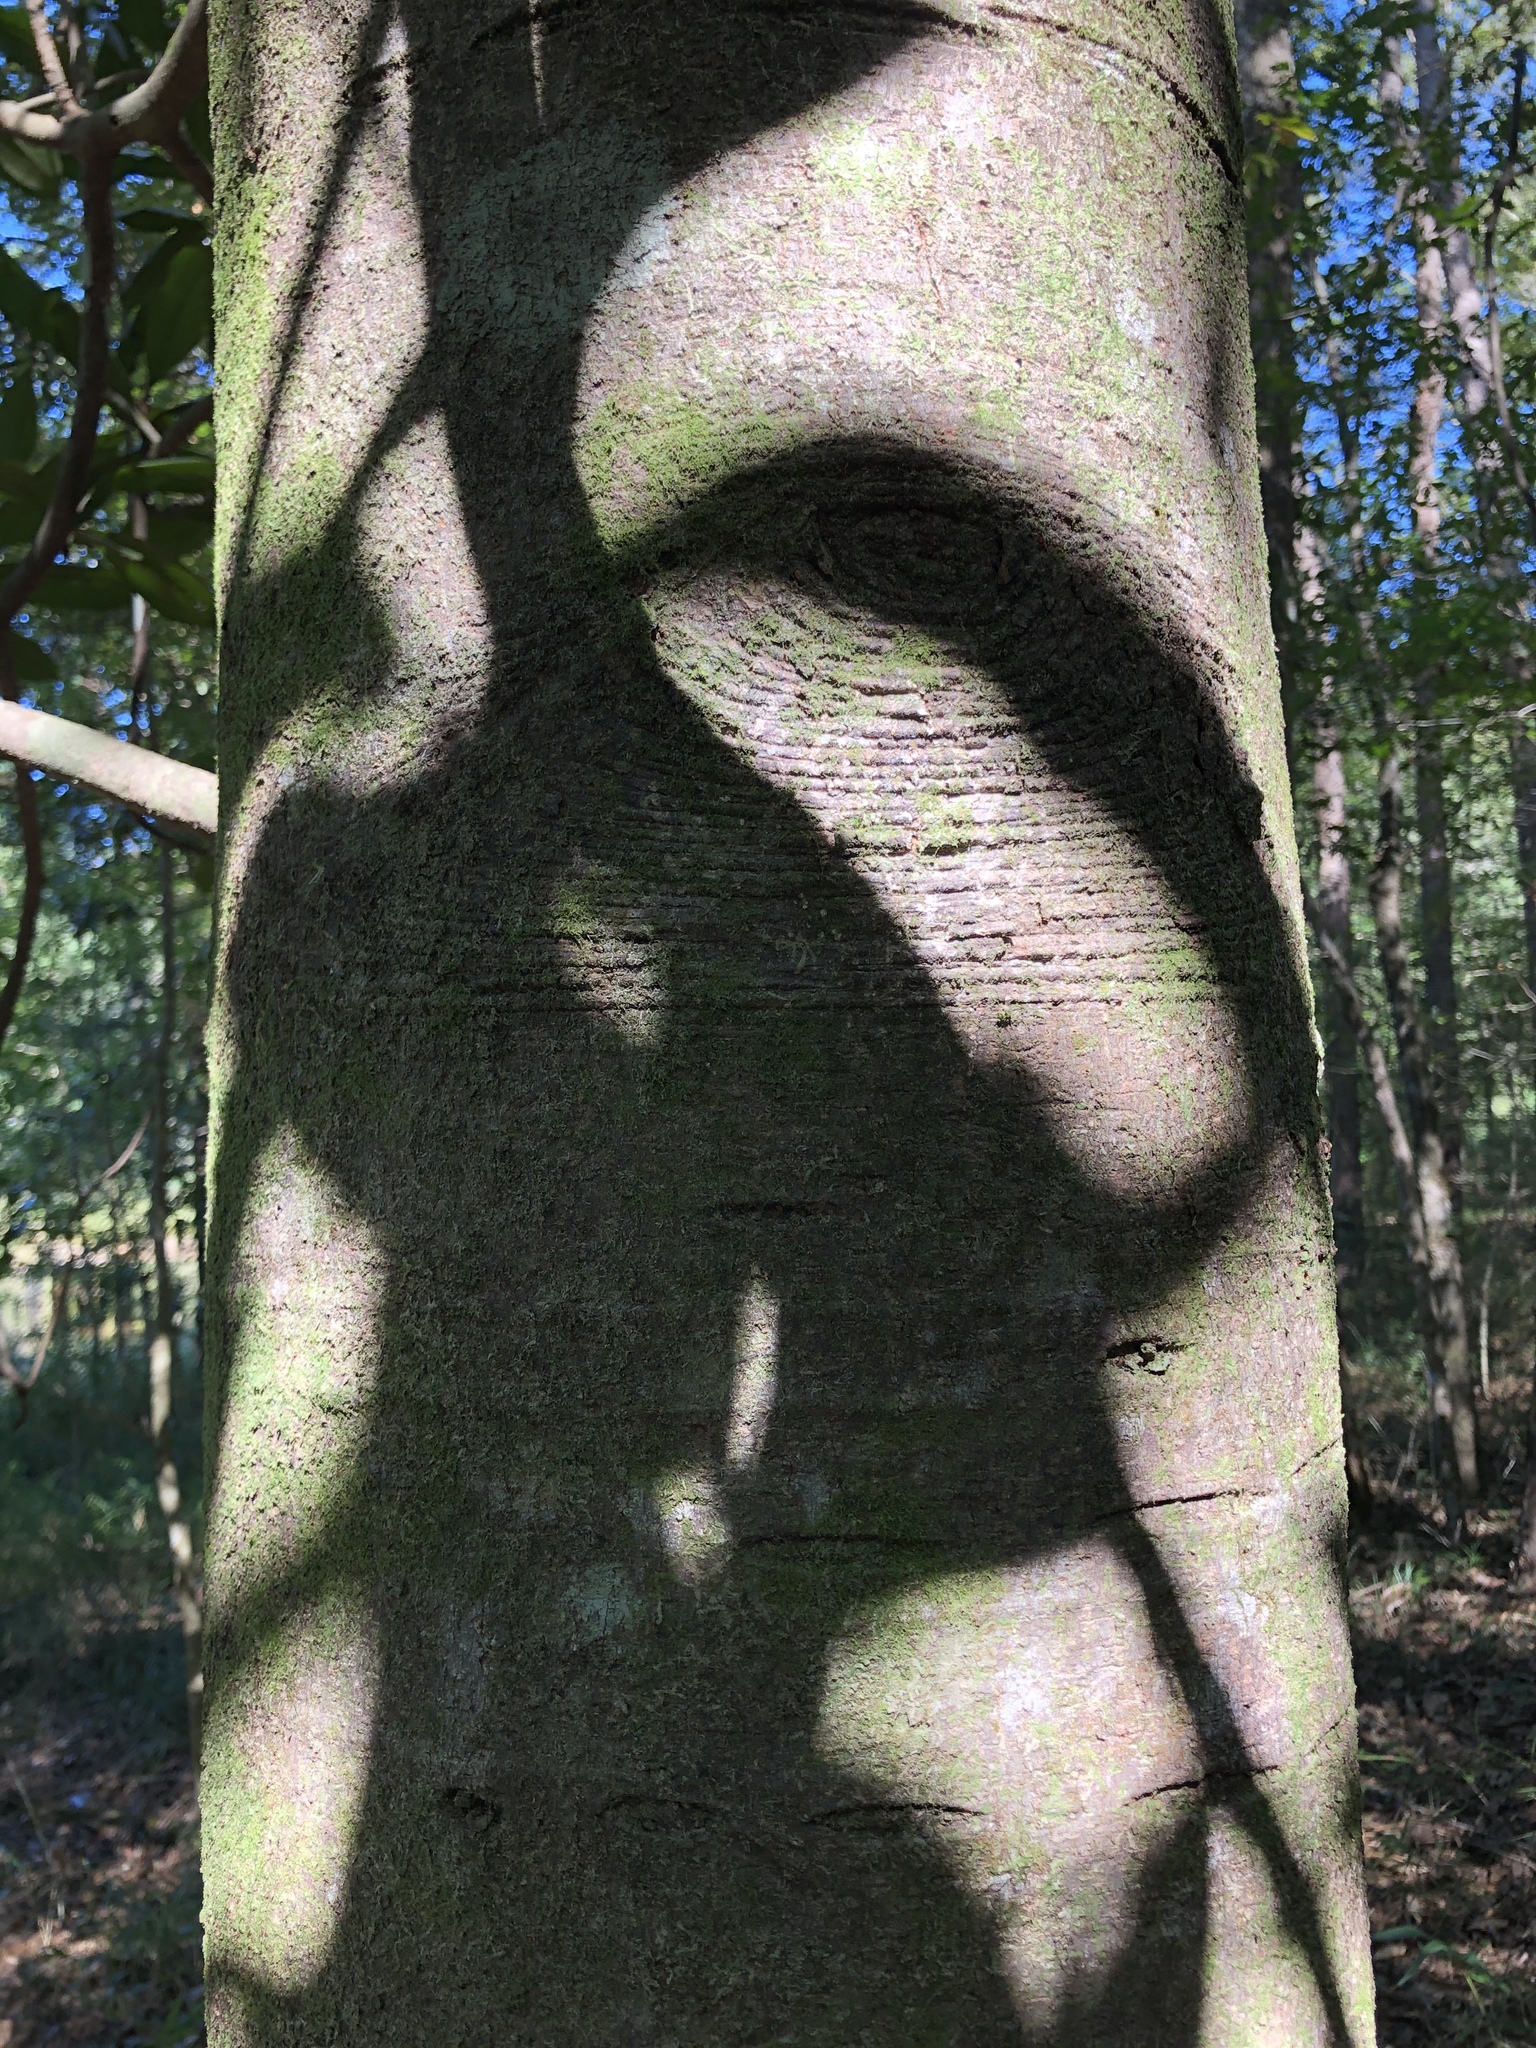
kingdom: Plantae
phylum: Tracheophyta
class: Magnoliopsida
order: Magnoliales
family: Magnoliaceae
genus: Magnolia
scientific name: Magnolia grandiflora
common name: Southern magnolia
